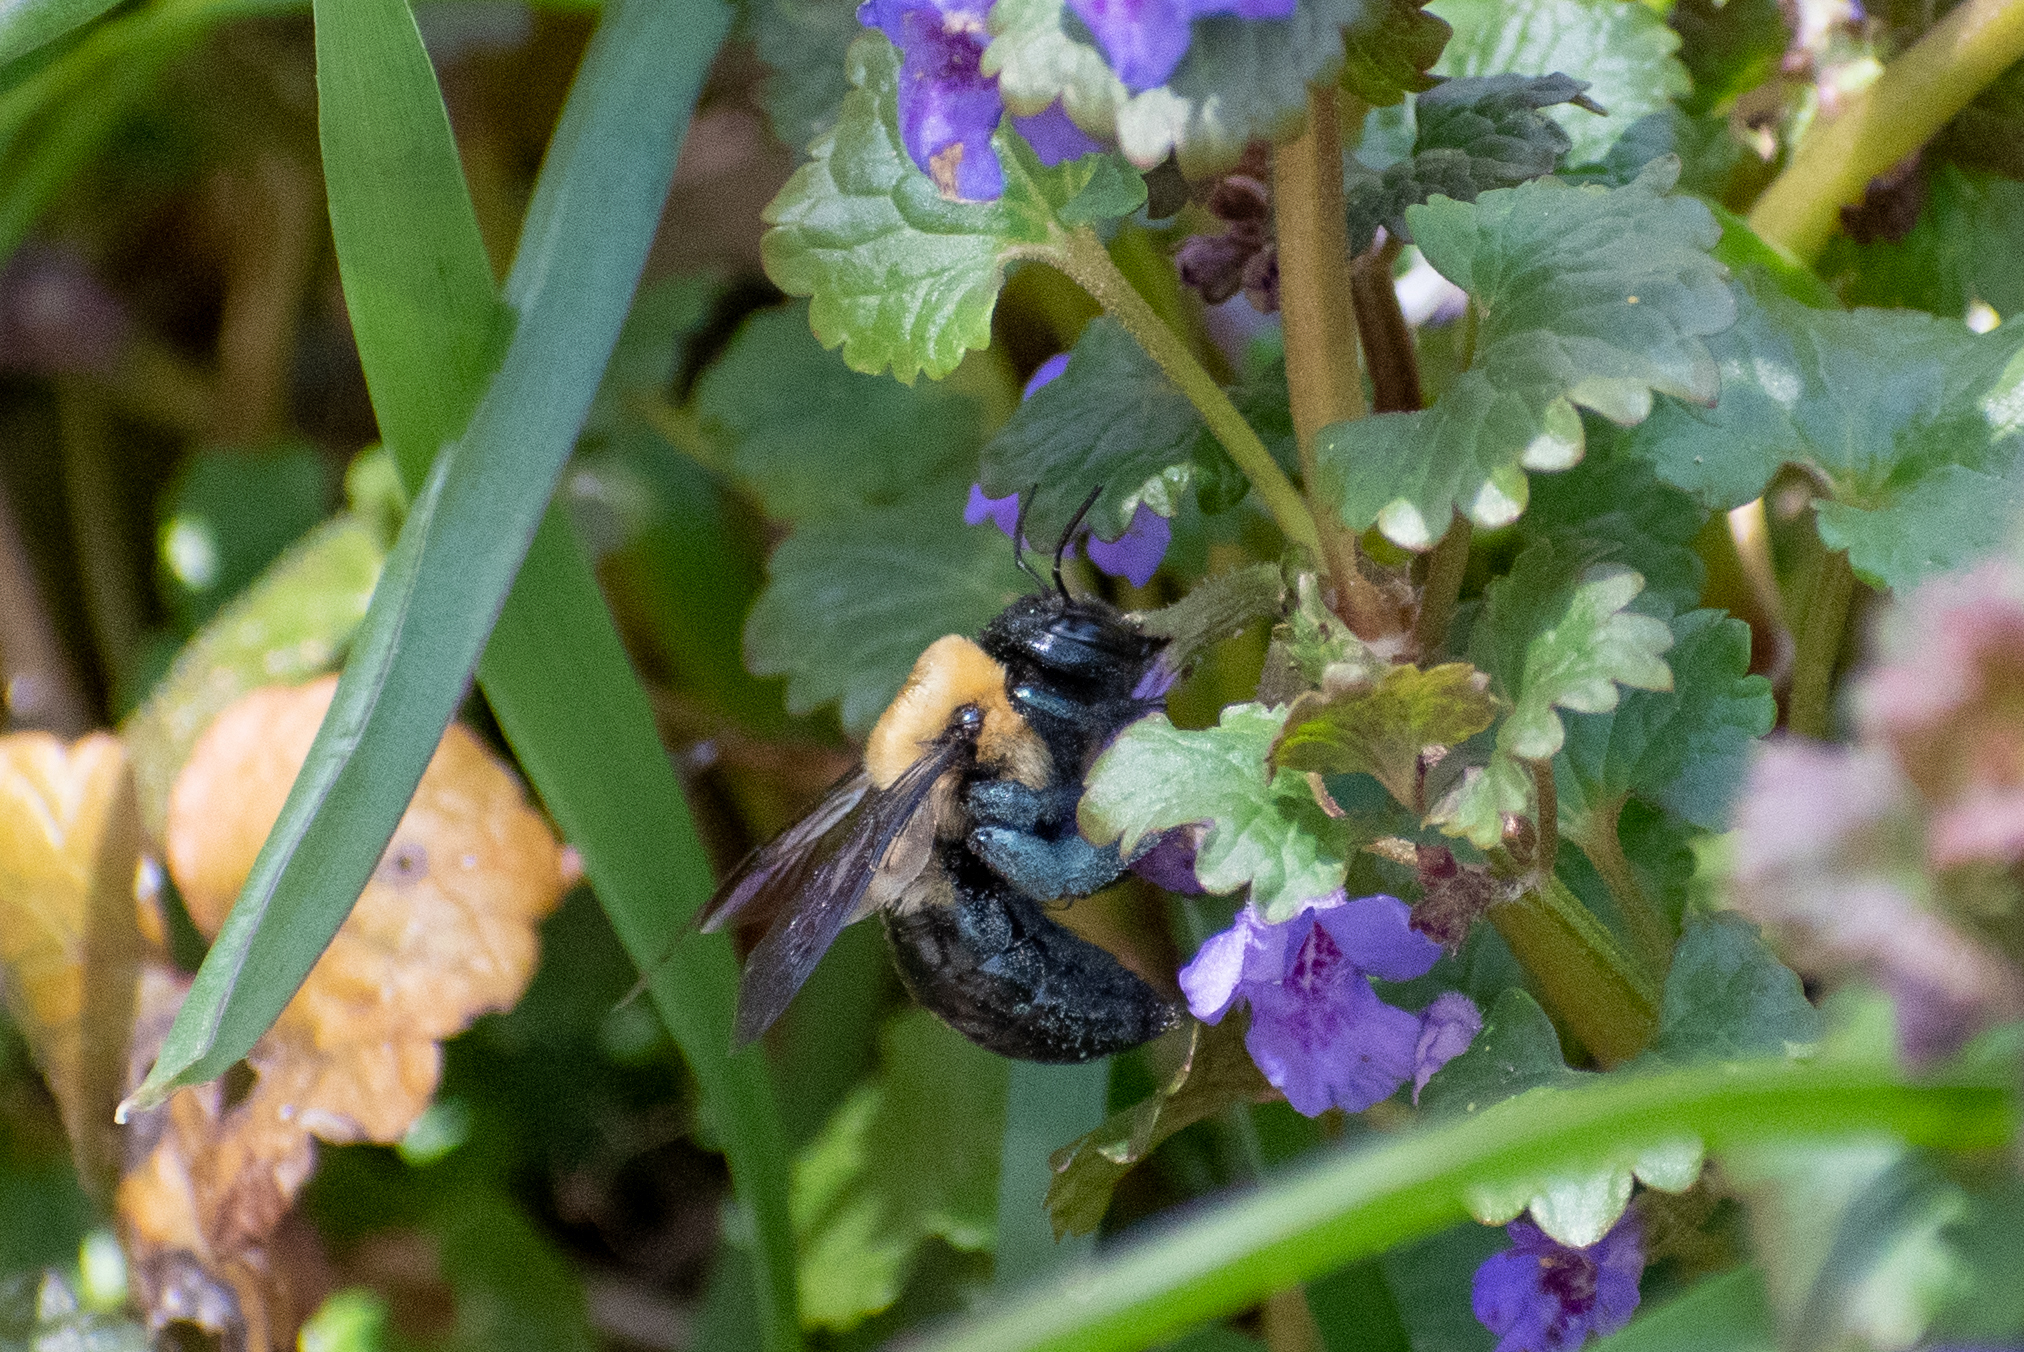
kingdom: Animalia
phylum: Arthropoda
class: Insecta
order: Hymenoptera
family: Apidae
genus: Xylocopa
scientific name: Xylocopa virginica
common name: Carpenter bee
